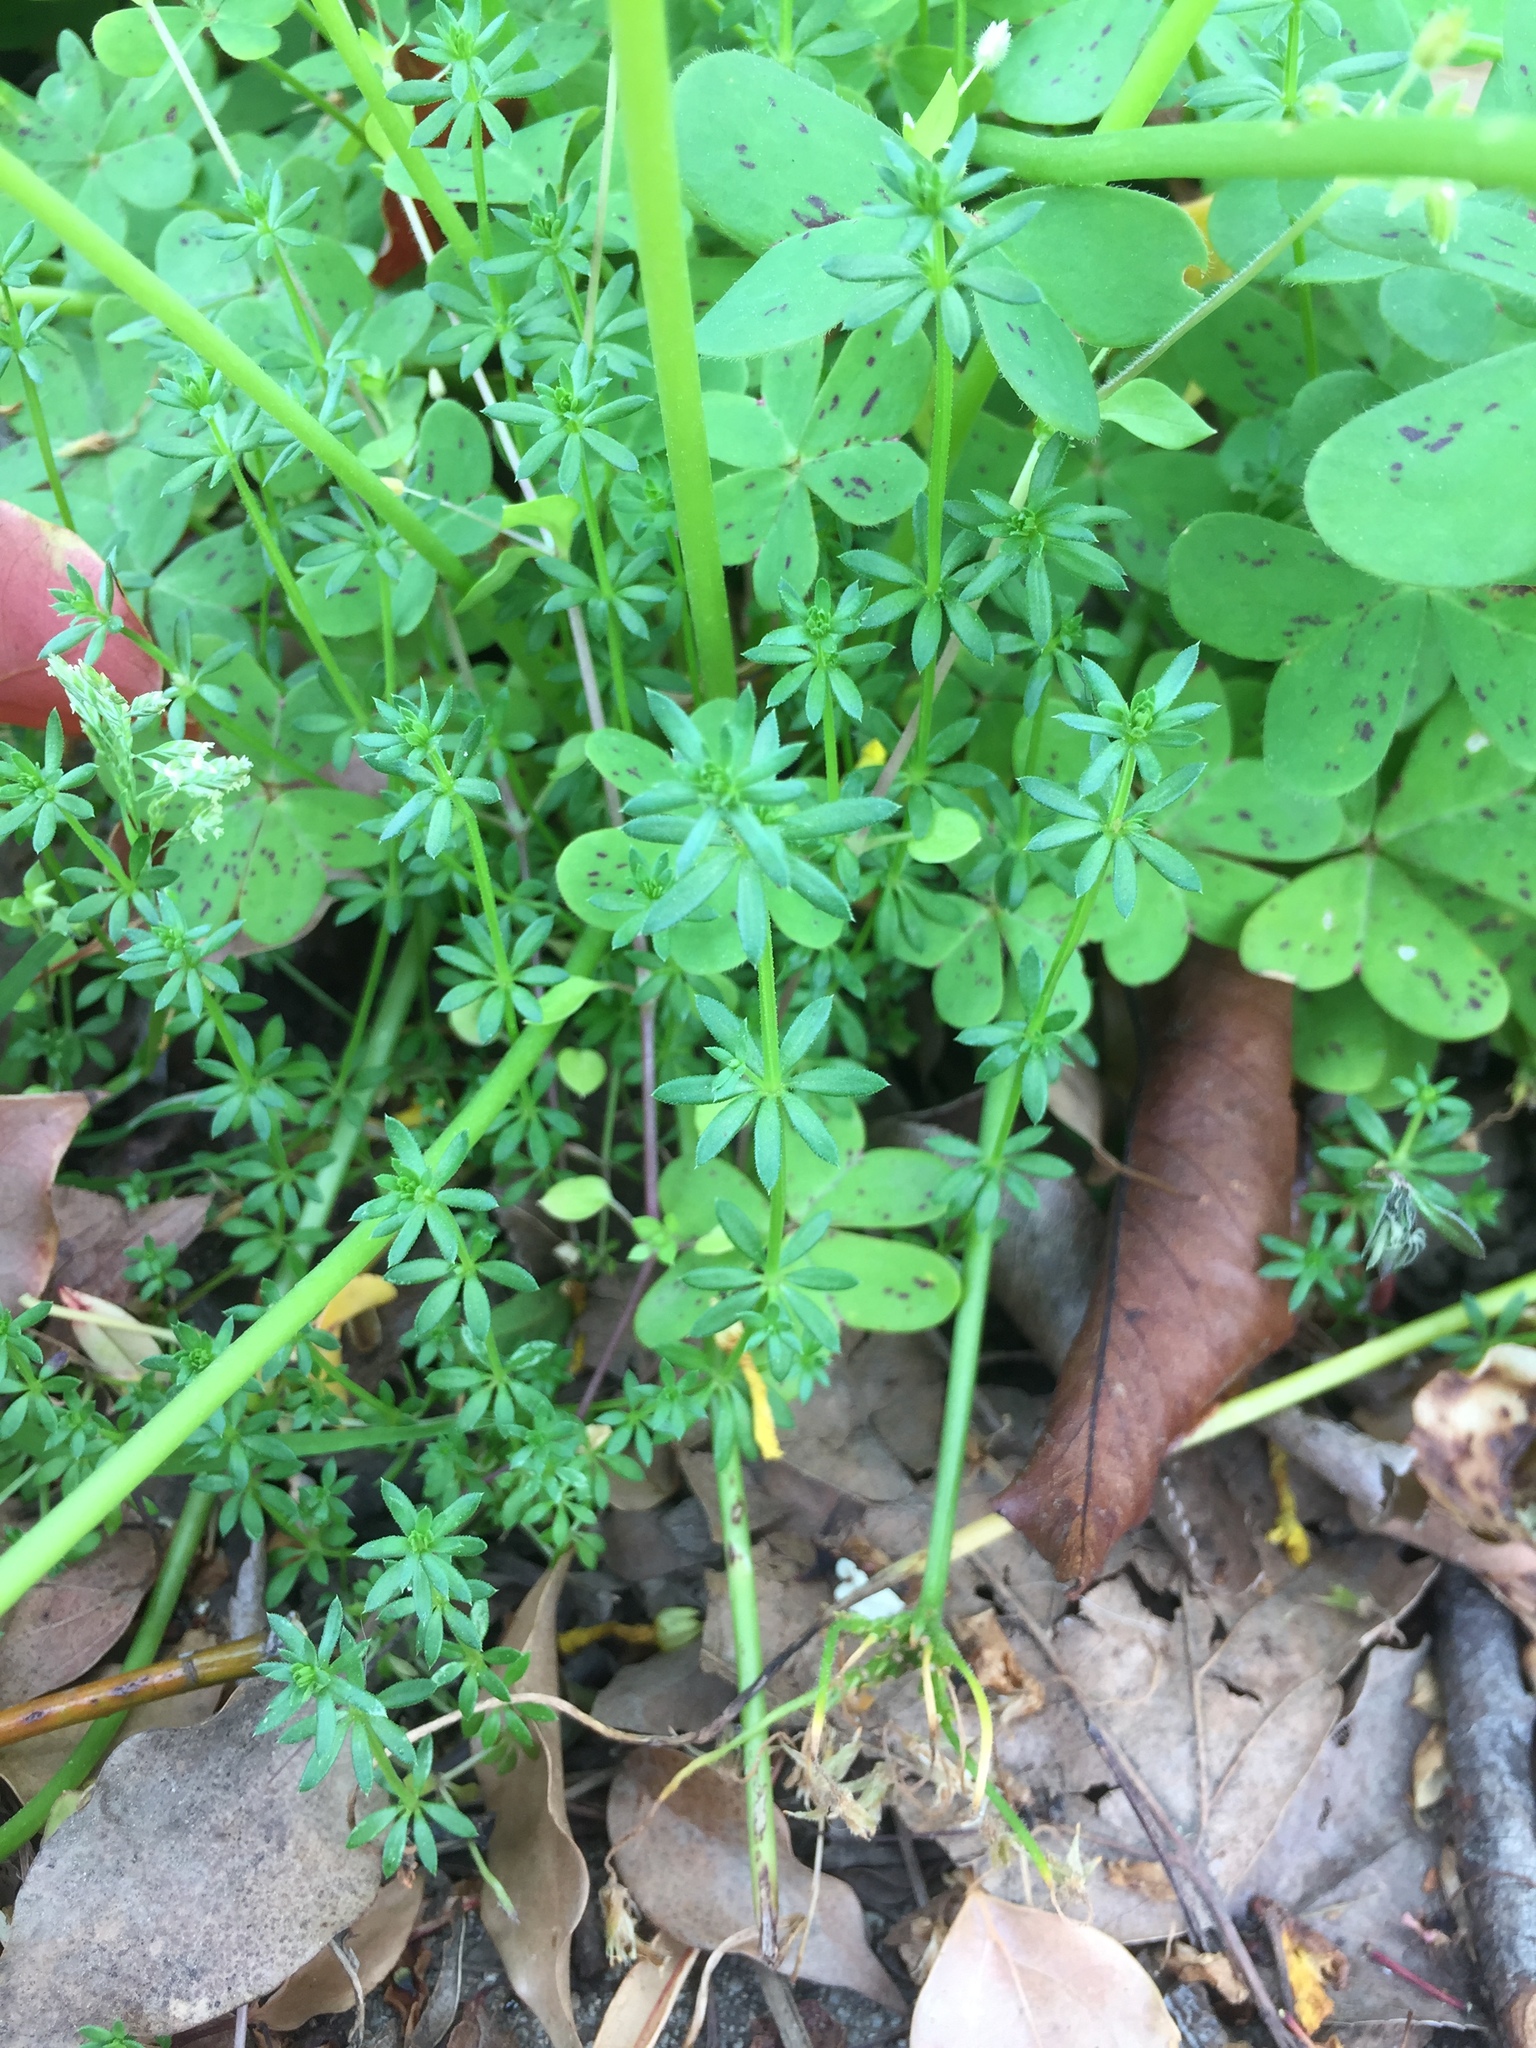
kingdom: Plantae
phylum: Tracheophyta
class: Magnoliopsida
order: Gentianales
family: Rubiaceae
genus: Galium
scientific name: Galium aparine
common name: Cleavers
